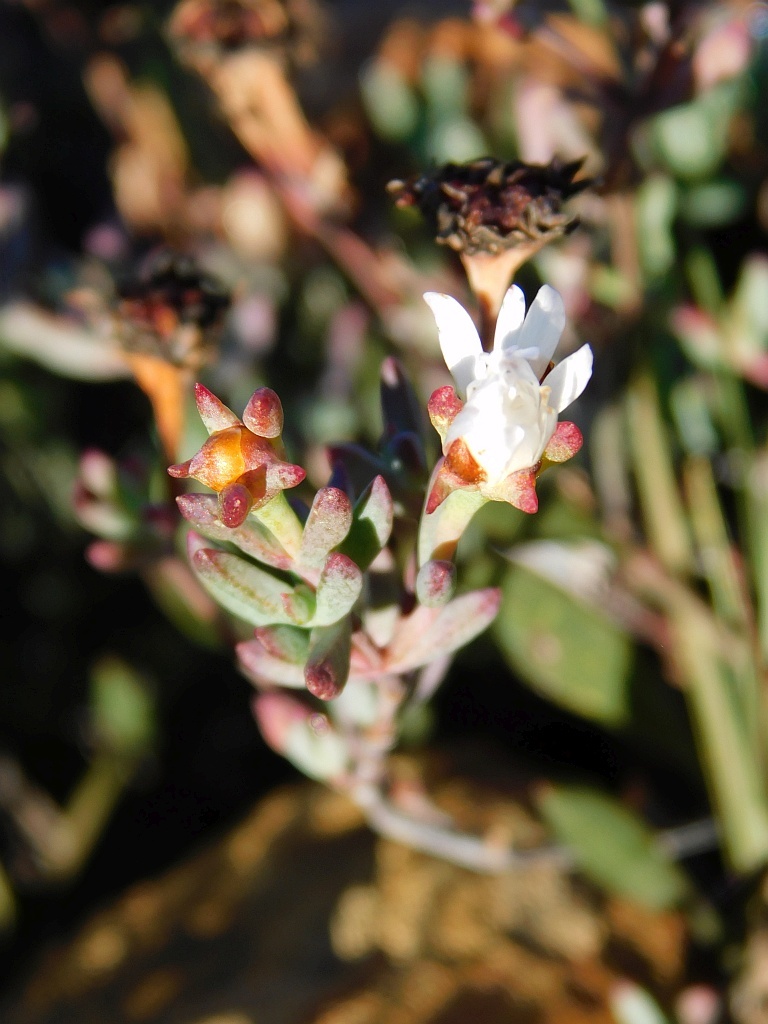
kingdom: Plantae
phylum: Tracheophyta
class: Magnoliopsida
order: Caryophyllales
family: Aizoaceae
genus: Lampranthus
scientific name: Lampranthus falcatus
